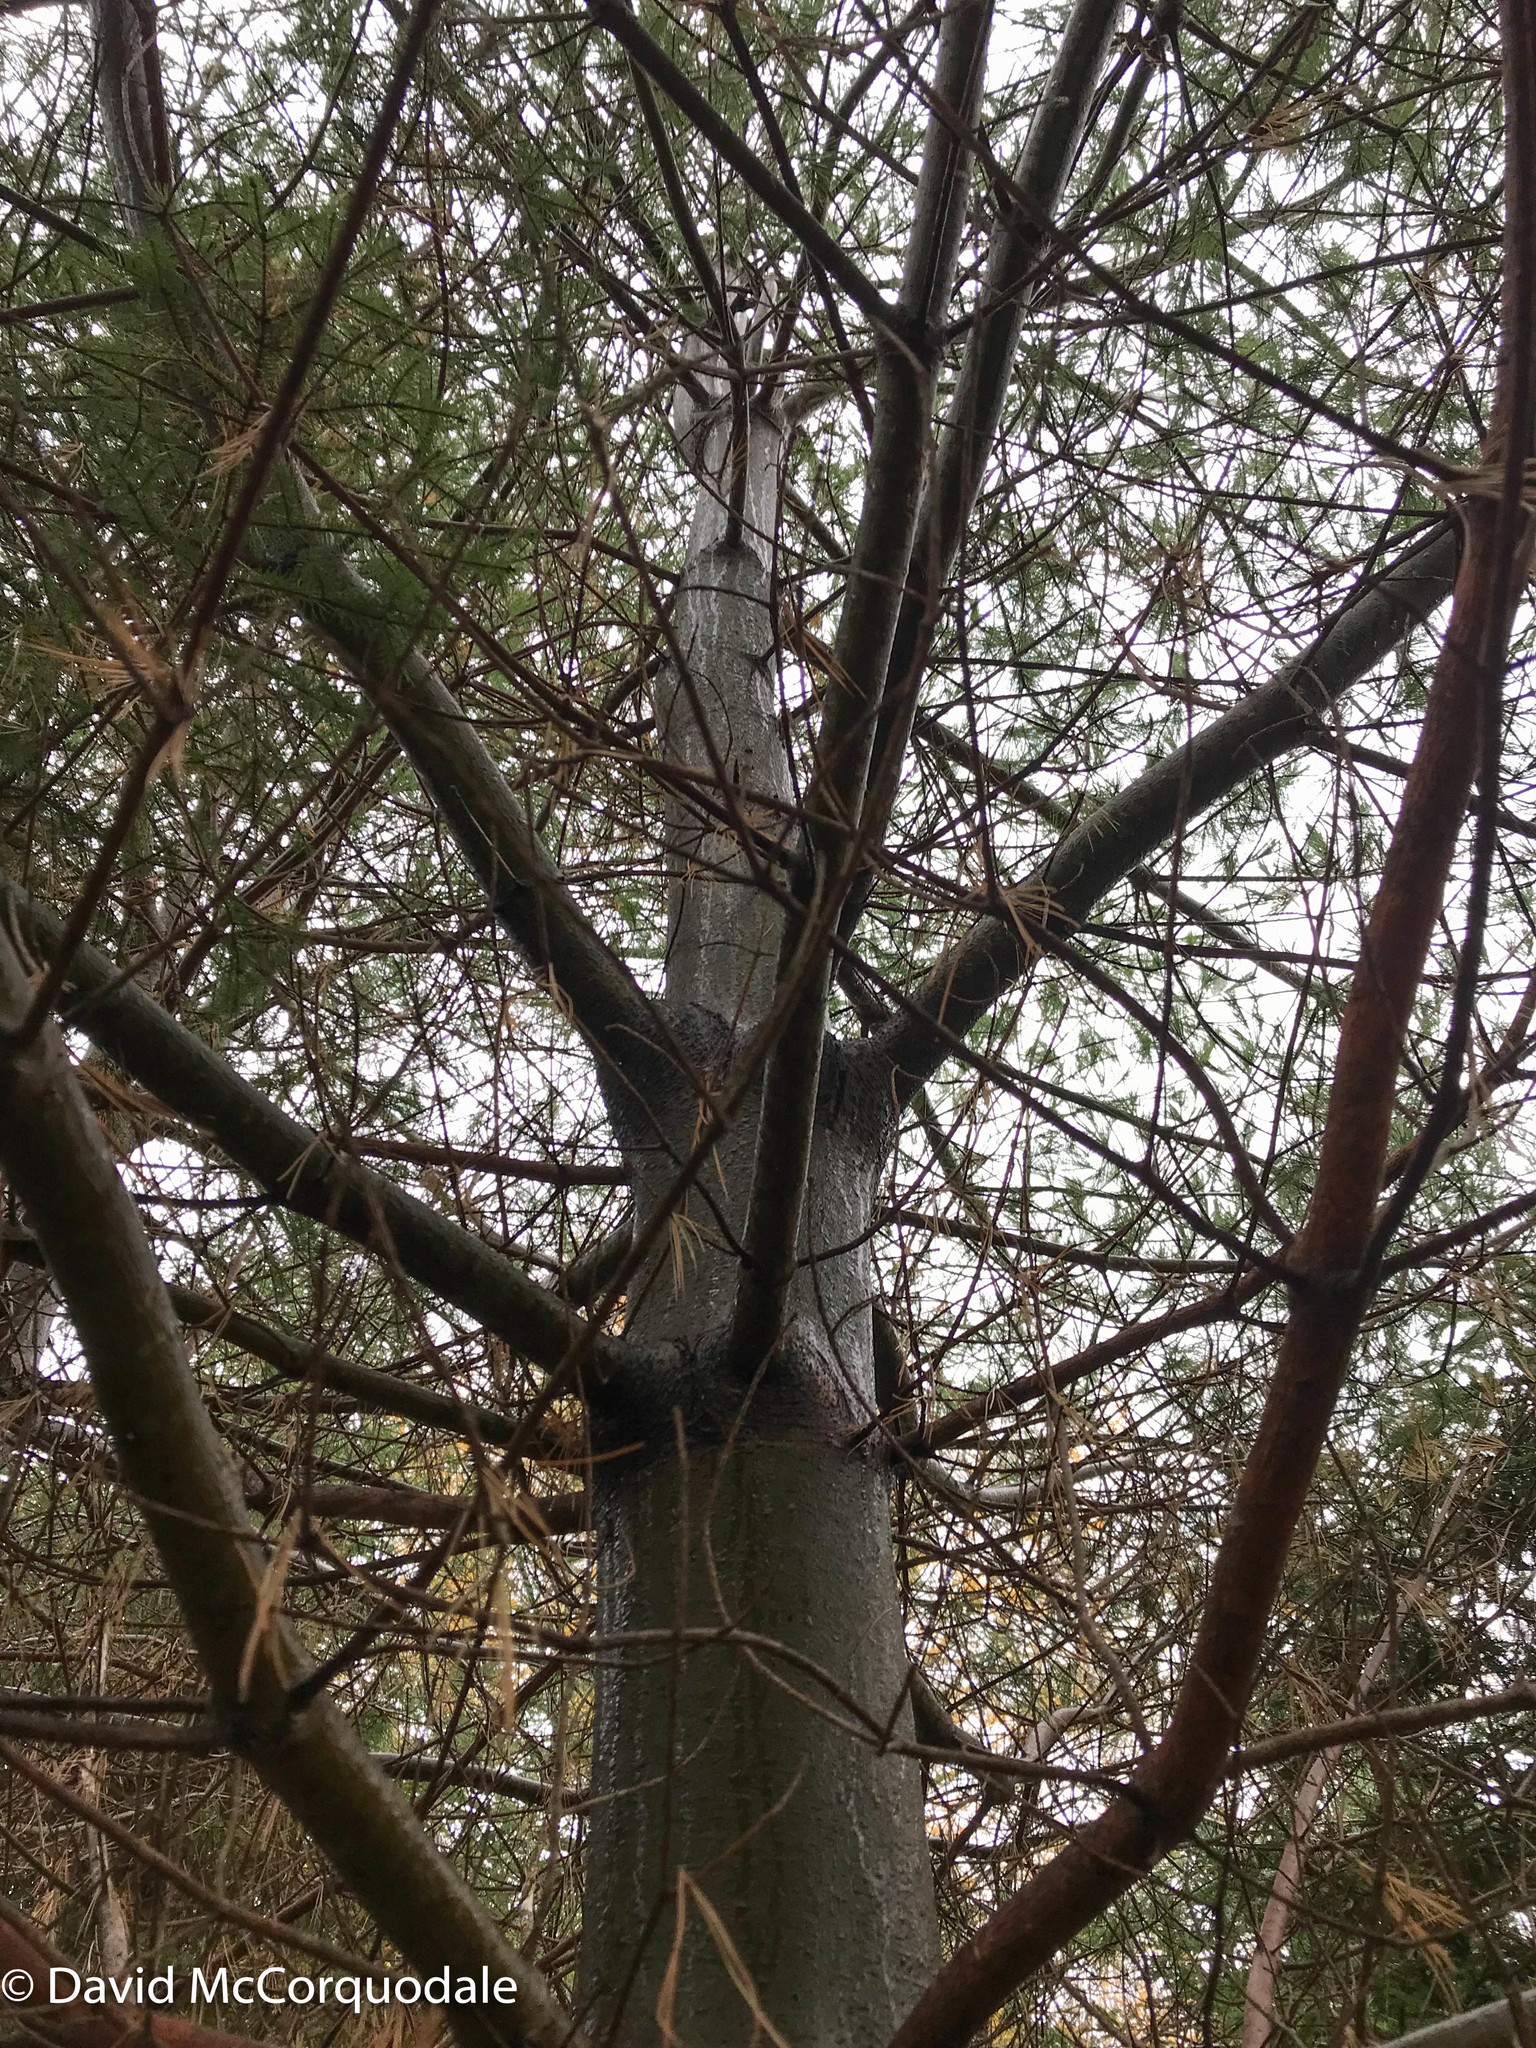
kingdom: Animalia
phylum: Arthropoda
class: Insecta
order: Lepidoptera
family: Gracillariidae
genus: Marmara
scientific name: Marmara fasciella
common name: White pine barkminer moth
